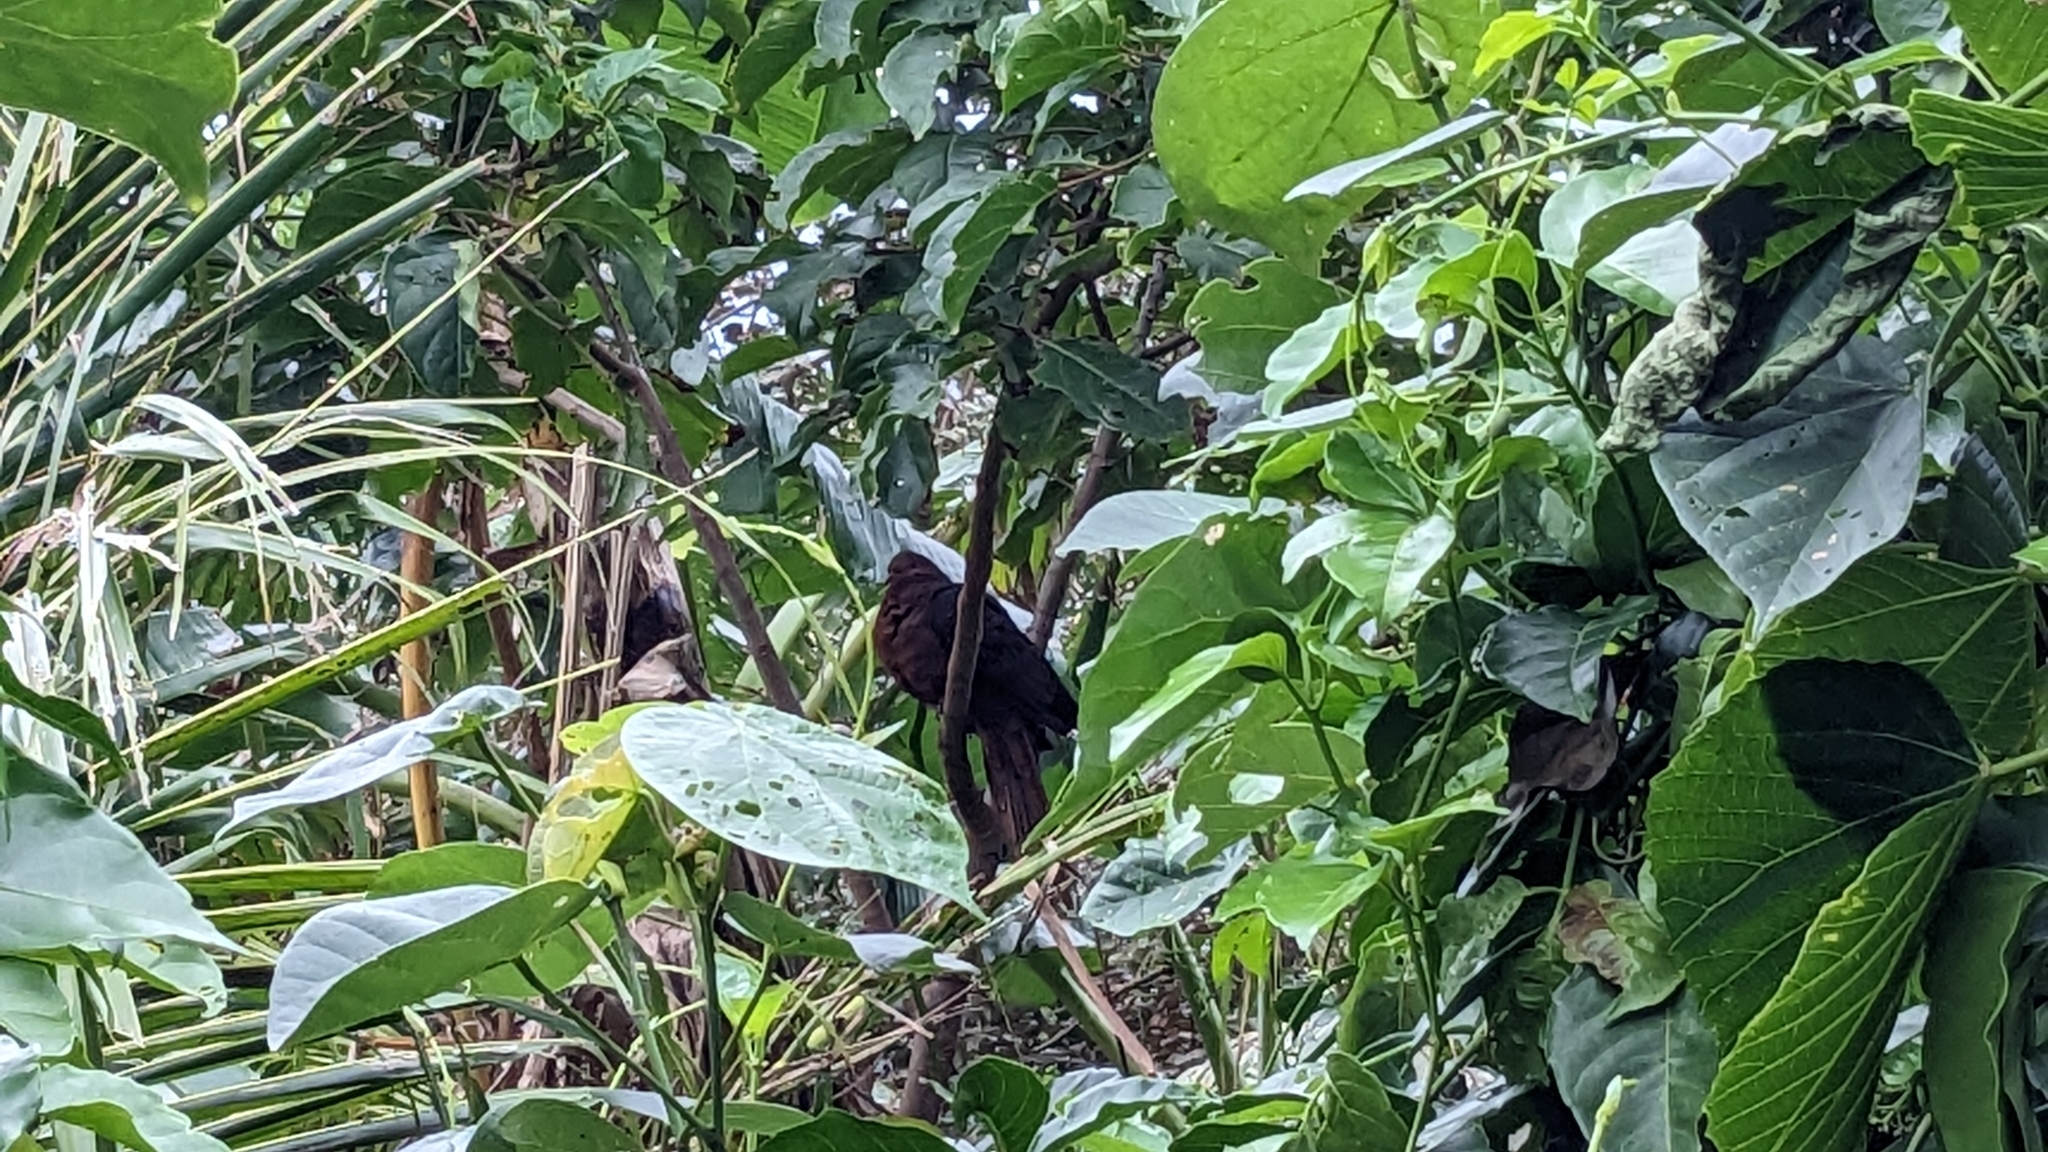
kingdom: Animalia
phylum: Chordata
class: Aves
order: Columbiformes
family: Columbidae
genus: Macropygia
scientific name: Macropygia tenuirostris
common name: Philippine cuckoo-dove
